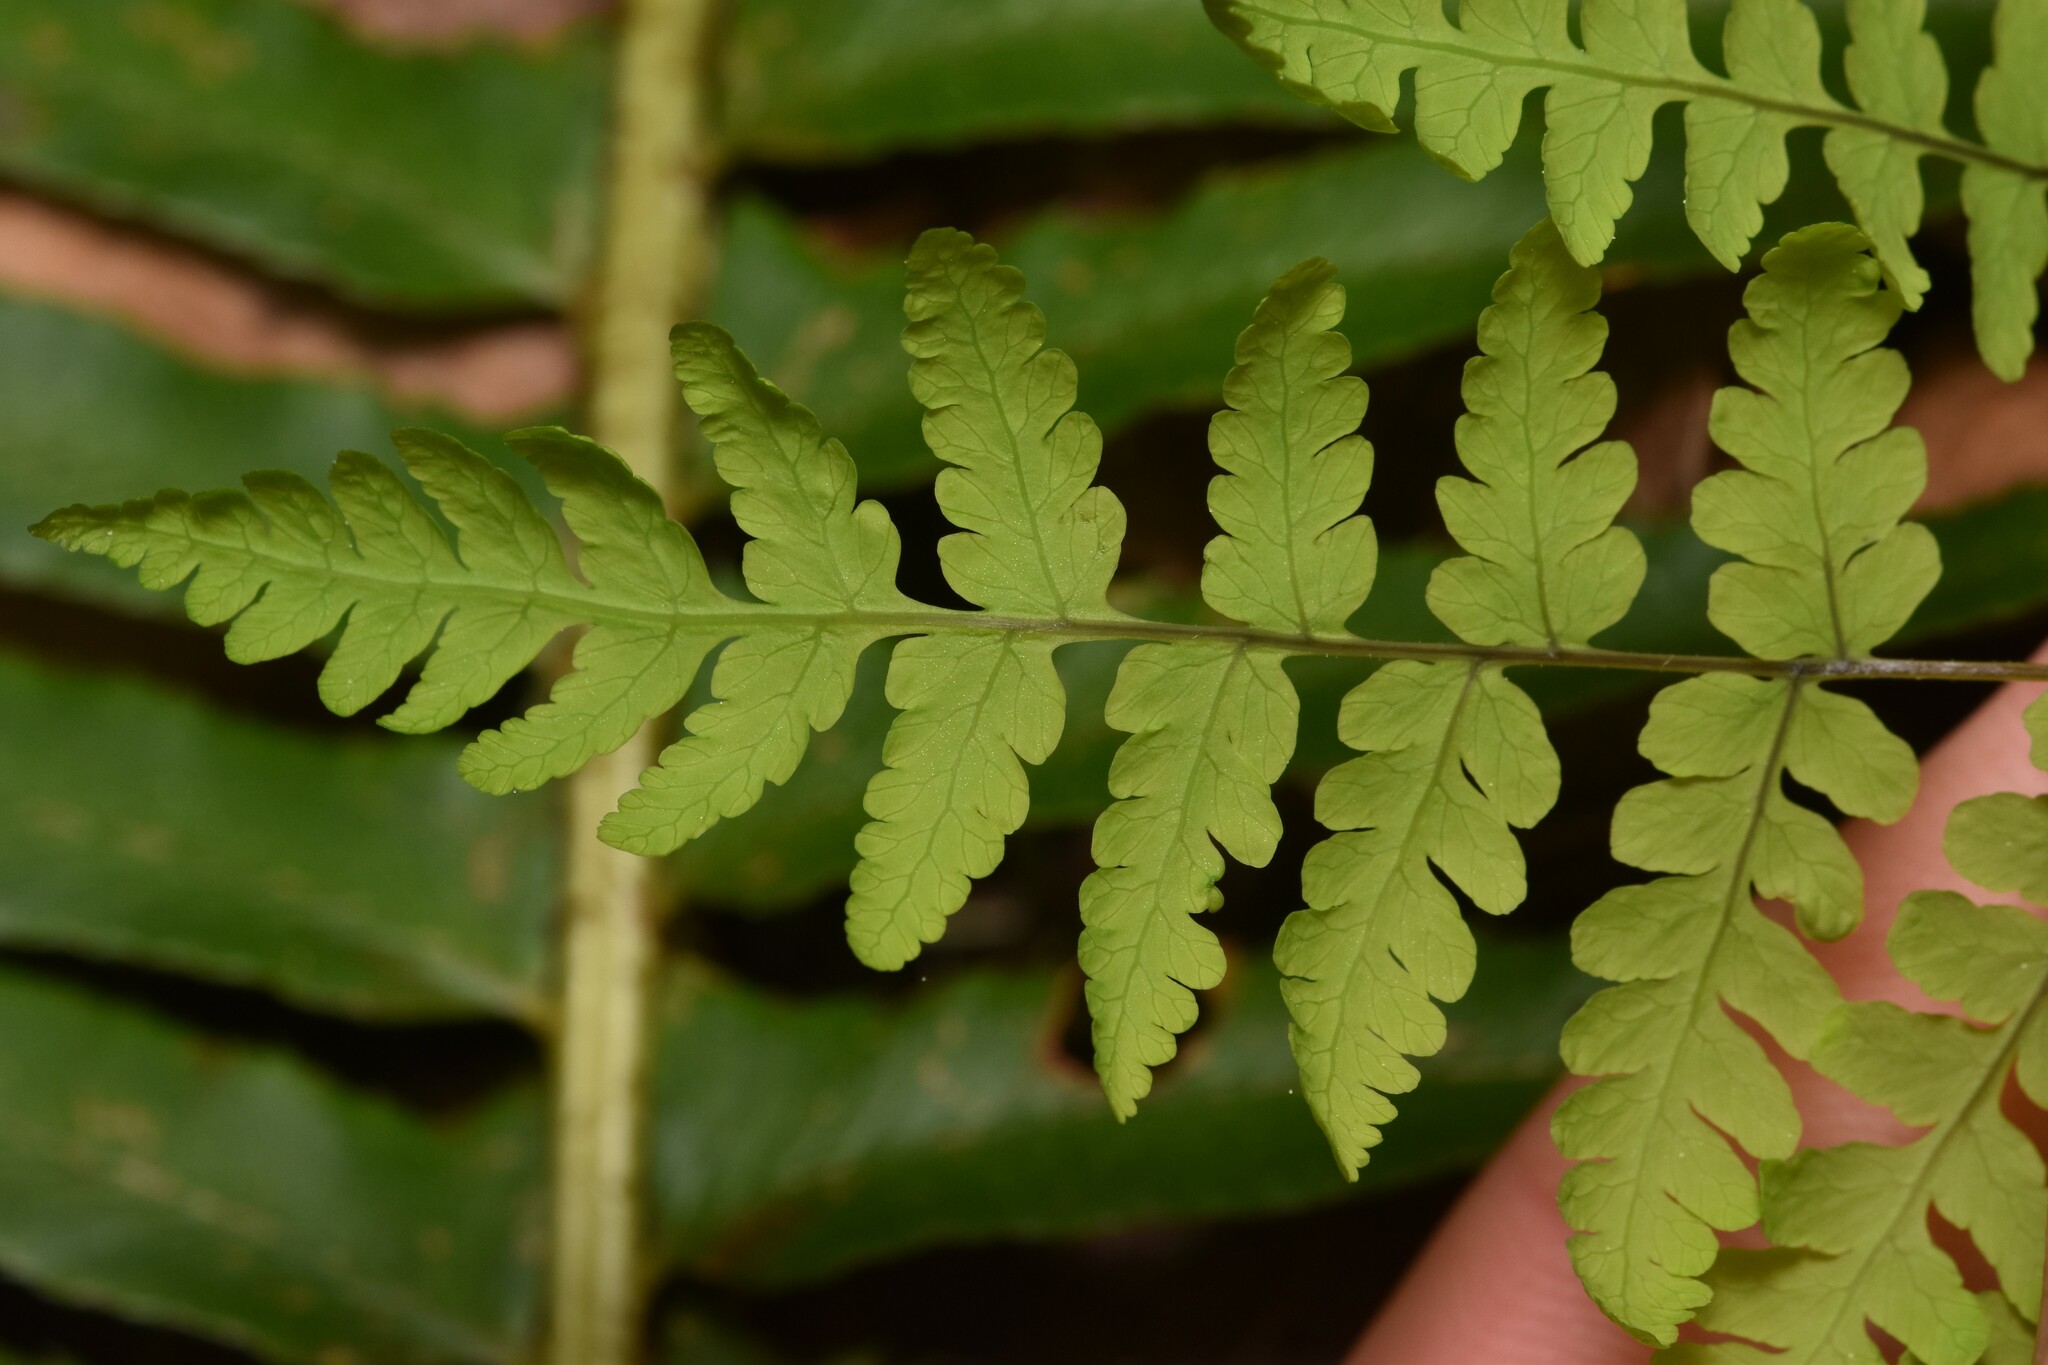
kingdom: Plantae
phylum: Tracheophyta
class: Polypodiopsida
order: Polypodiales
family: Cystopteridaceae
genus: Gymnocarpium
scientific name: Gymnocarpium disjunctum
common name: Western oak fern
